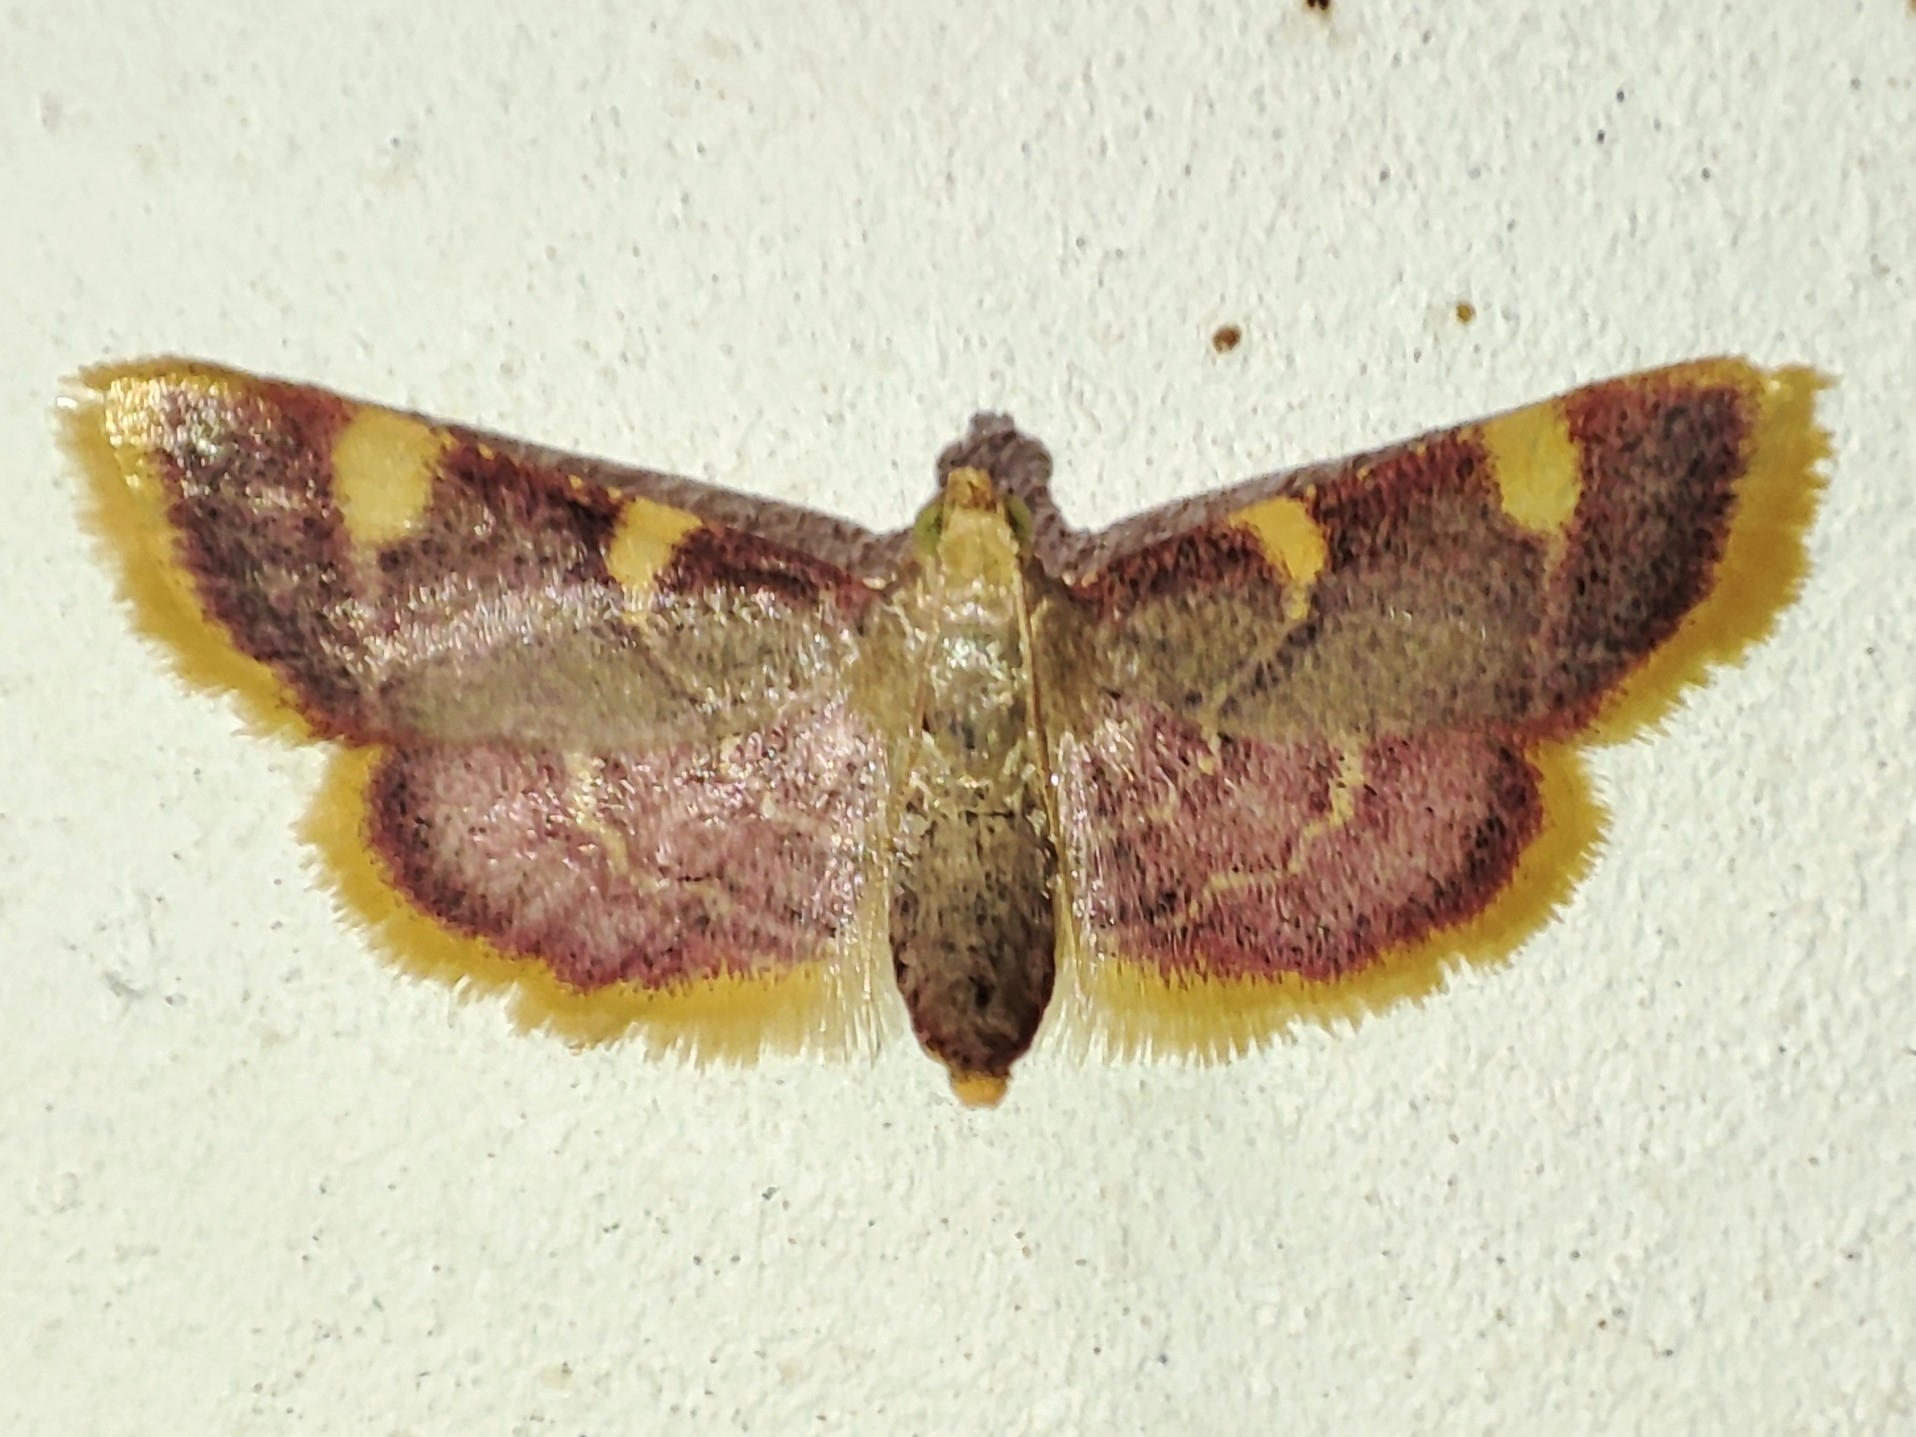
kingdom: Animalia
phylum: Arthropoda
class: Insecta
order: Lepidoptera
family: Pyralidae
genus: Hypsopygia
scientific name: Hypsopygia costalis
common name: Gold triangle
